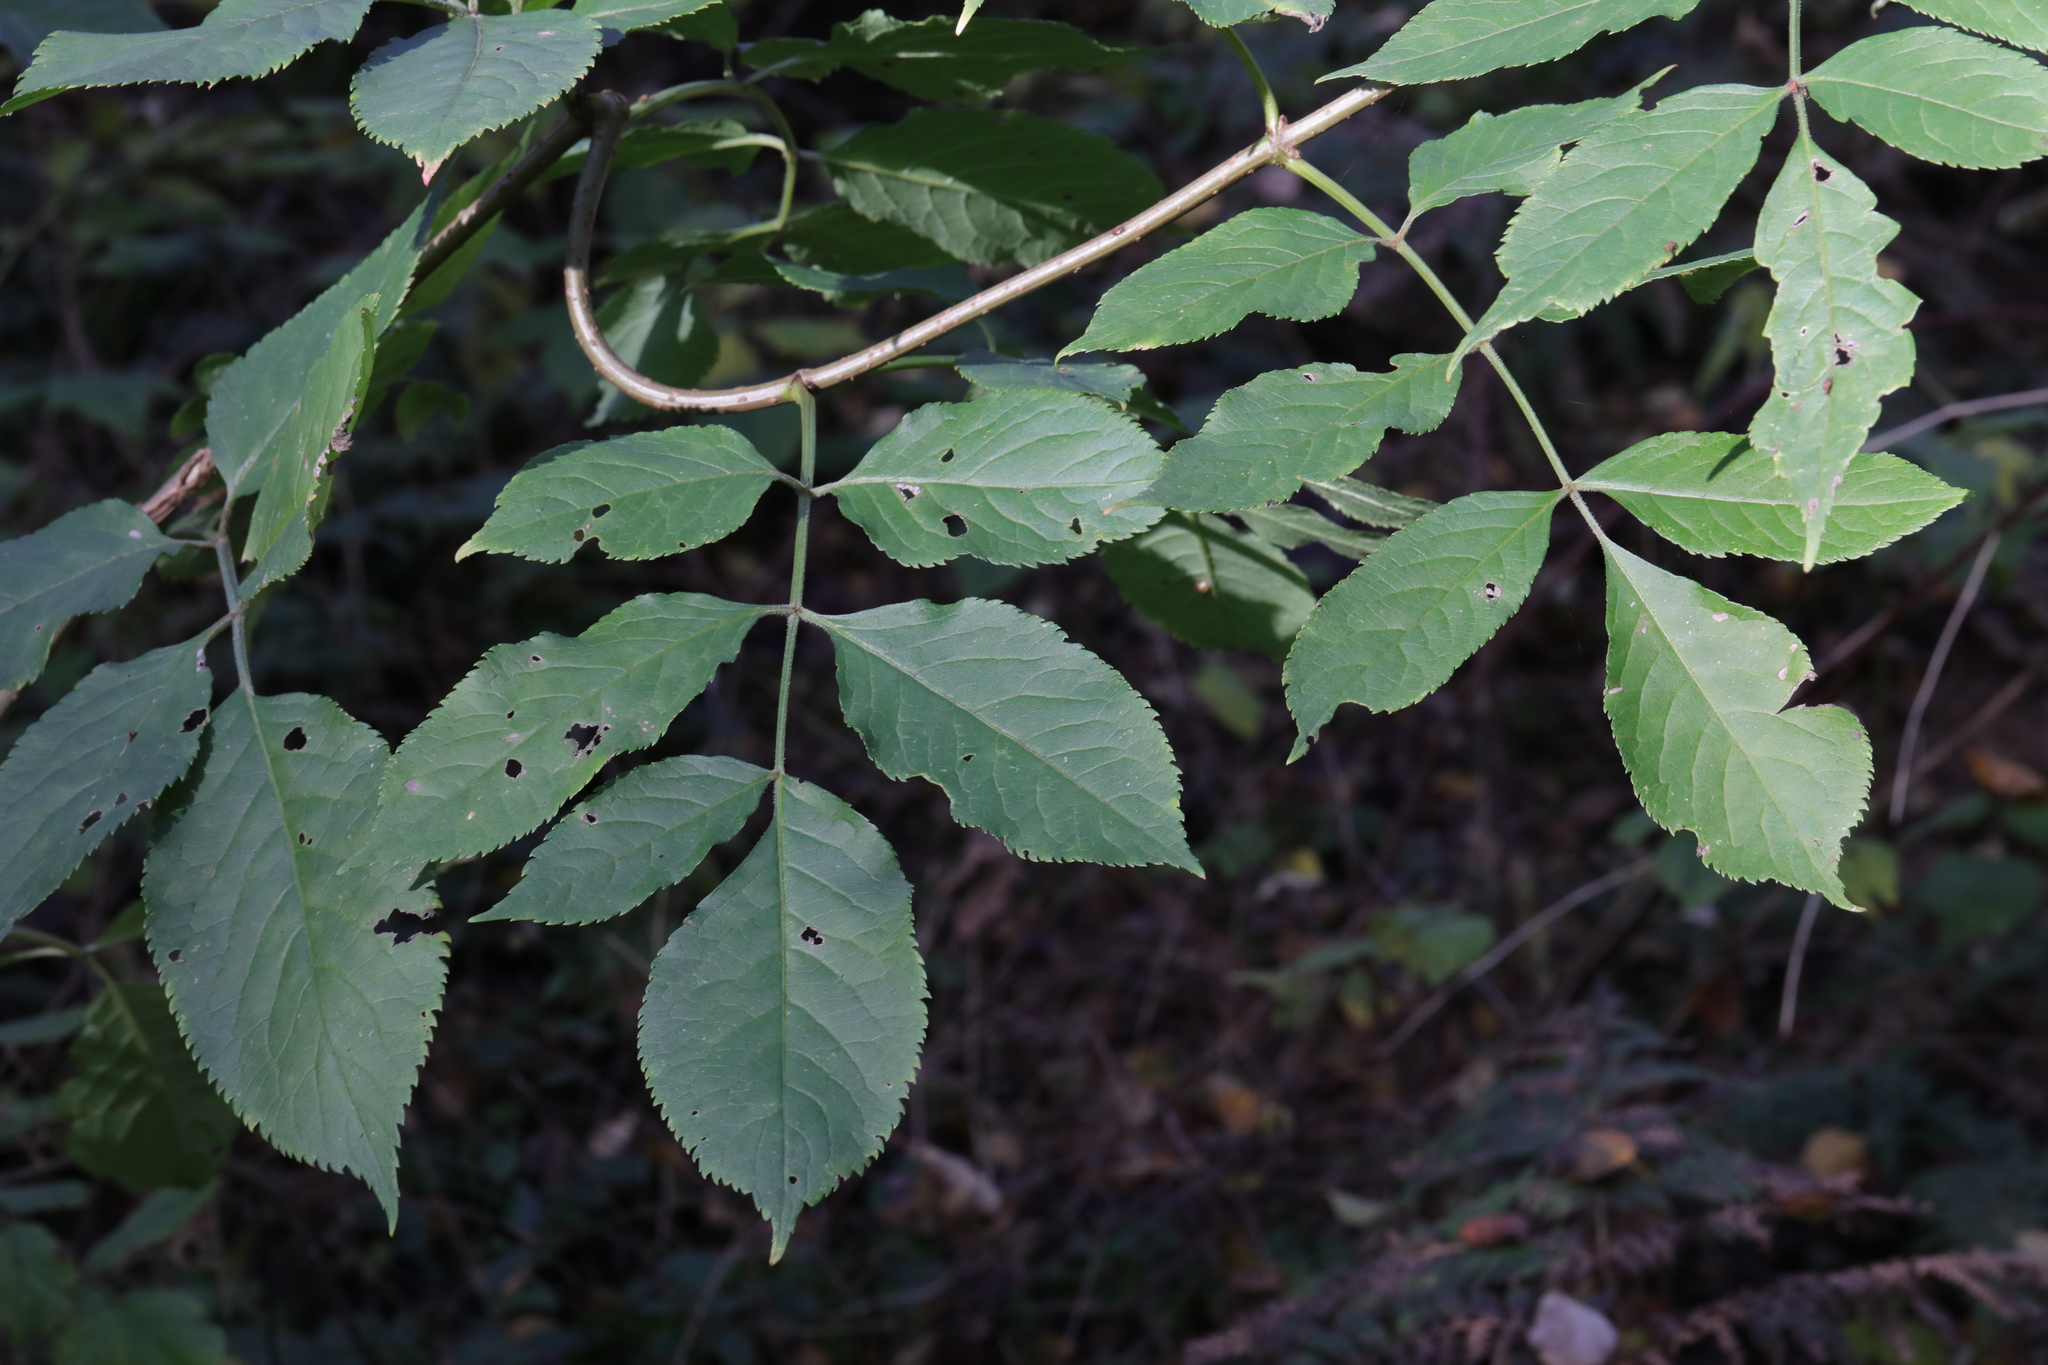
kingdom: Plantae
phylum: Tracheophyta
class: Magnoliopsida
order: Dipsacales
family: Viburnaceae
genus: Sambucus
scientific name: Sambucus nigra
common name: Elder
